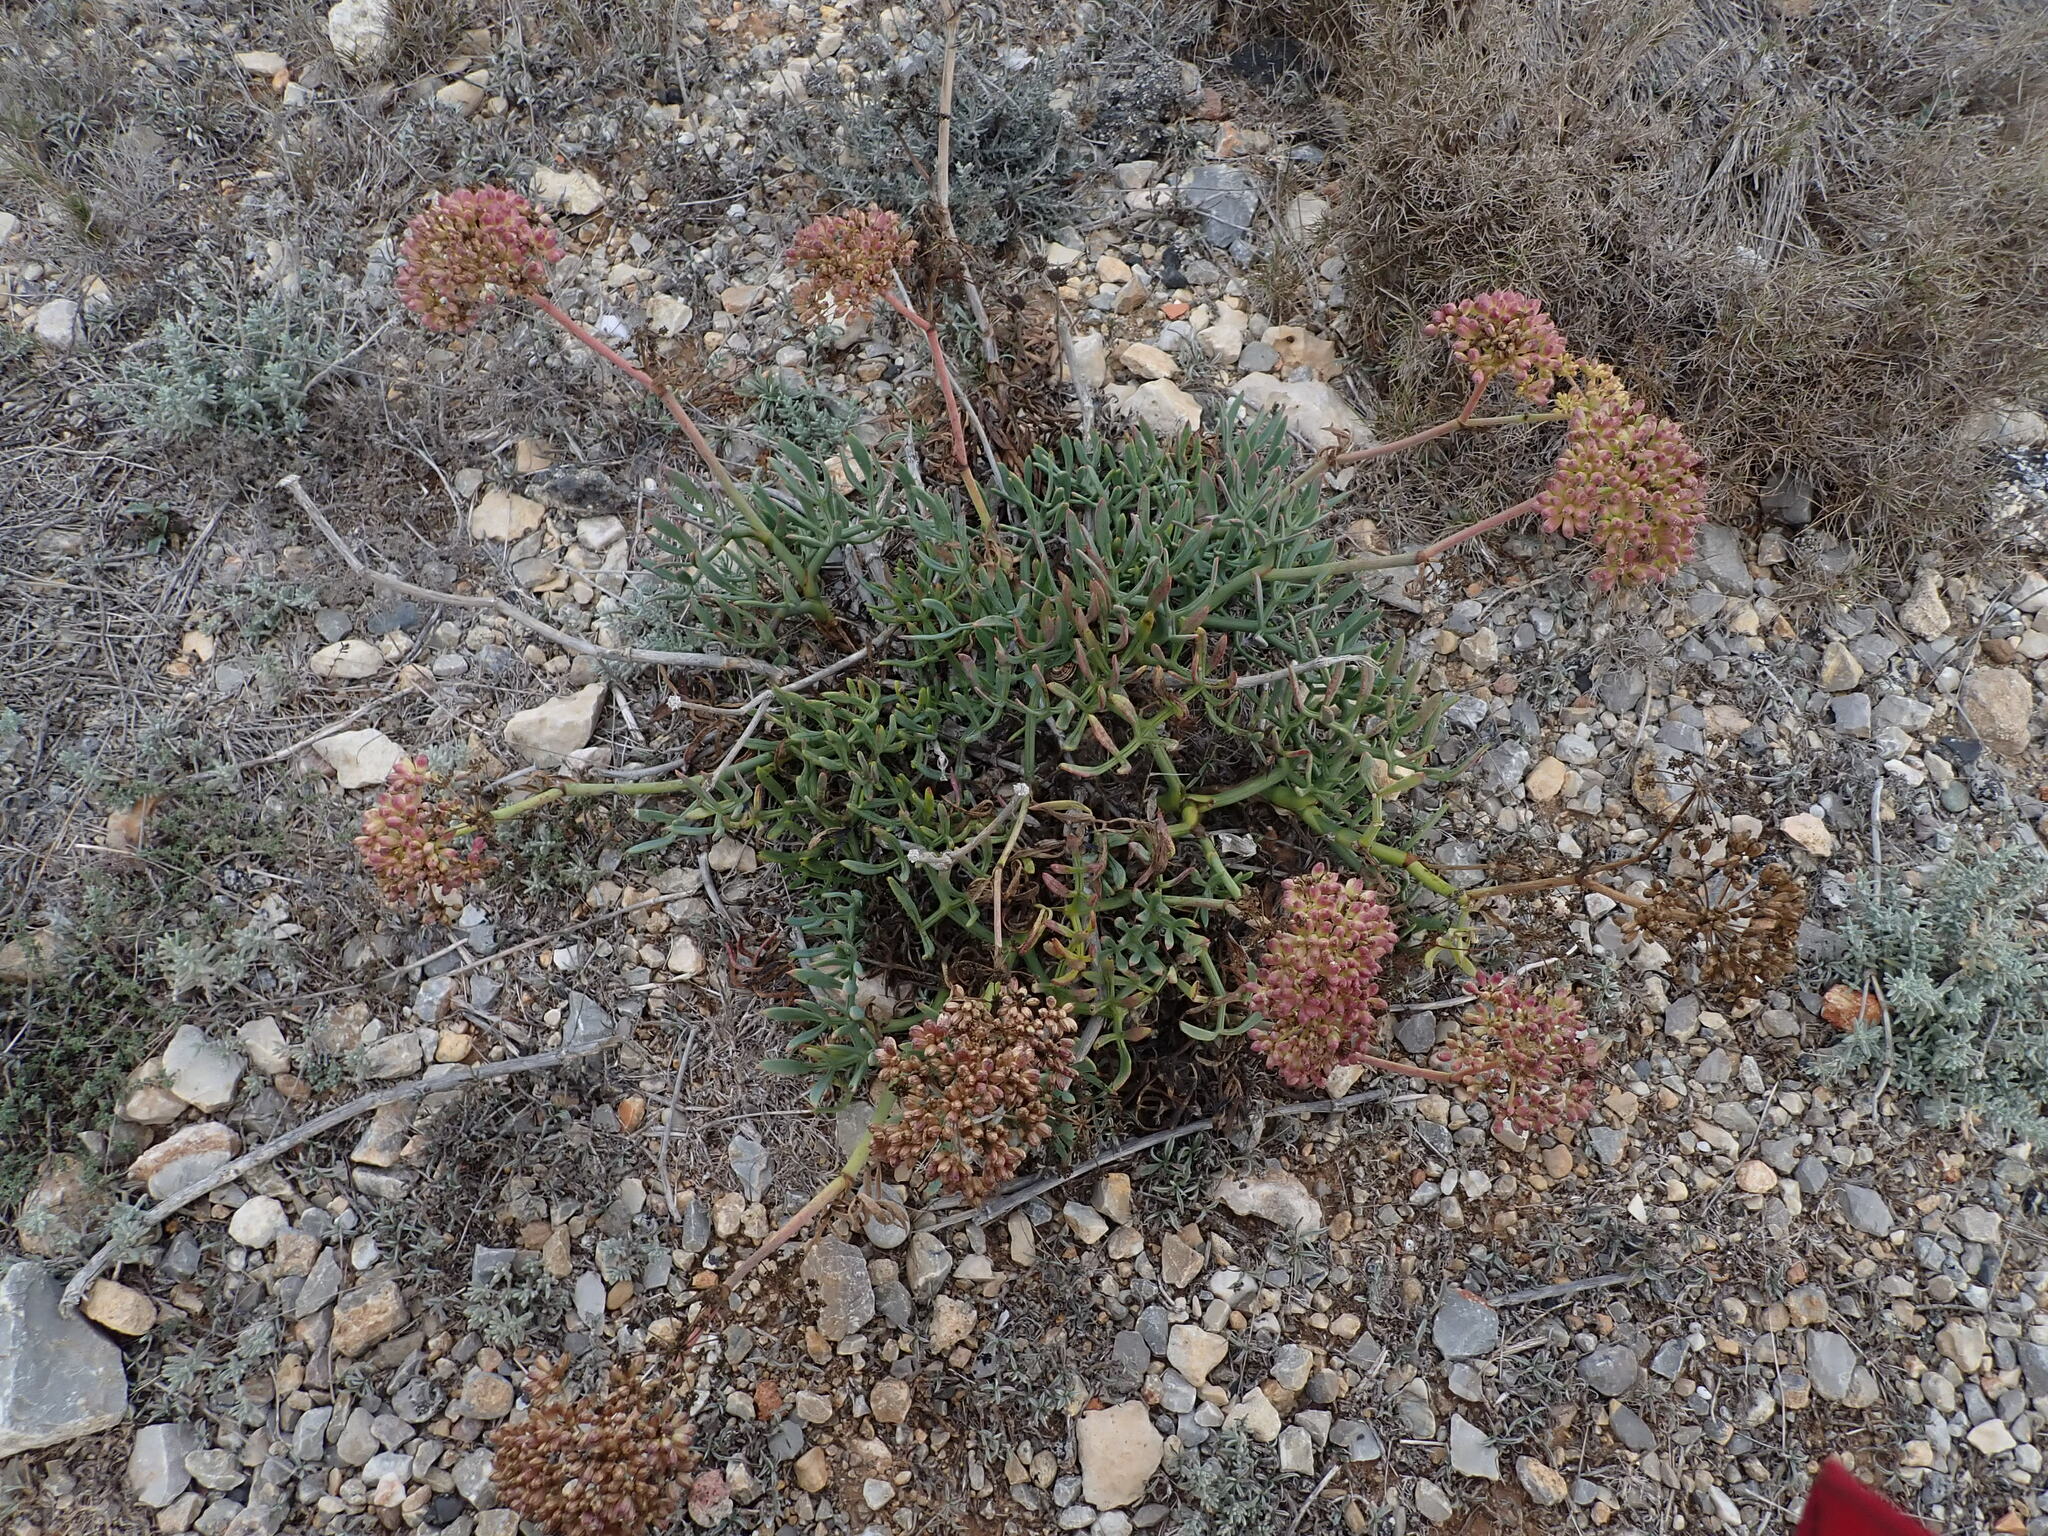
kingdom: Plantae
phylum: Tracheophyta
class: Magnoliopsida
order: Apiales
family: Apiaceae
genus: Crithmum
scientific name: Crithmum maritimum
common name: Rock samphire
